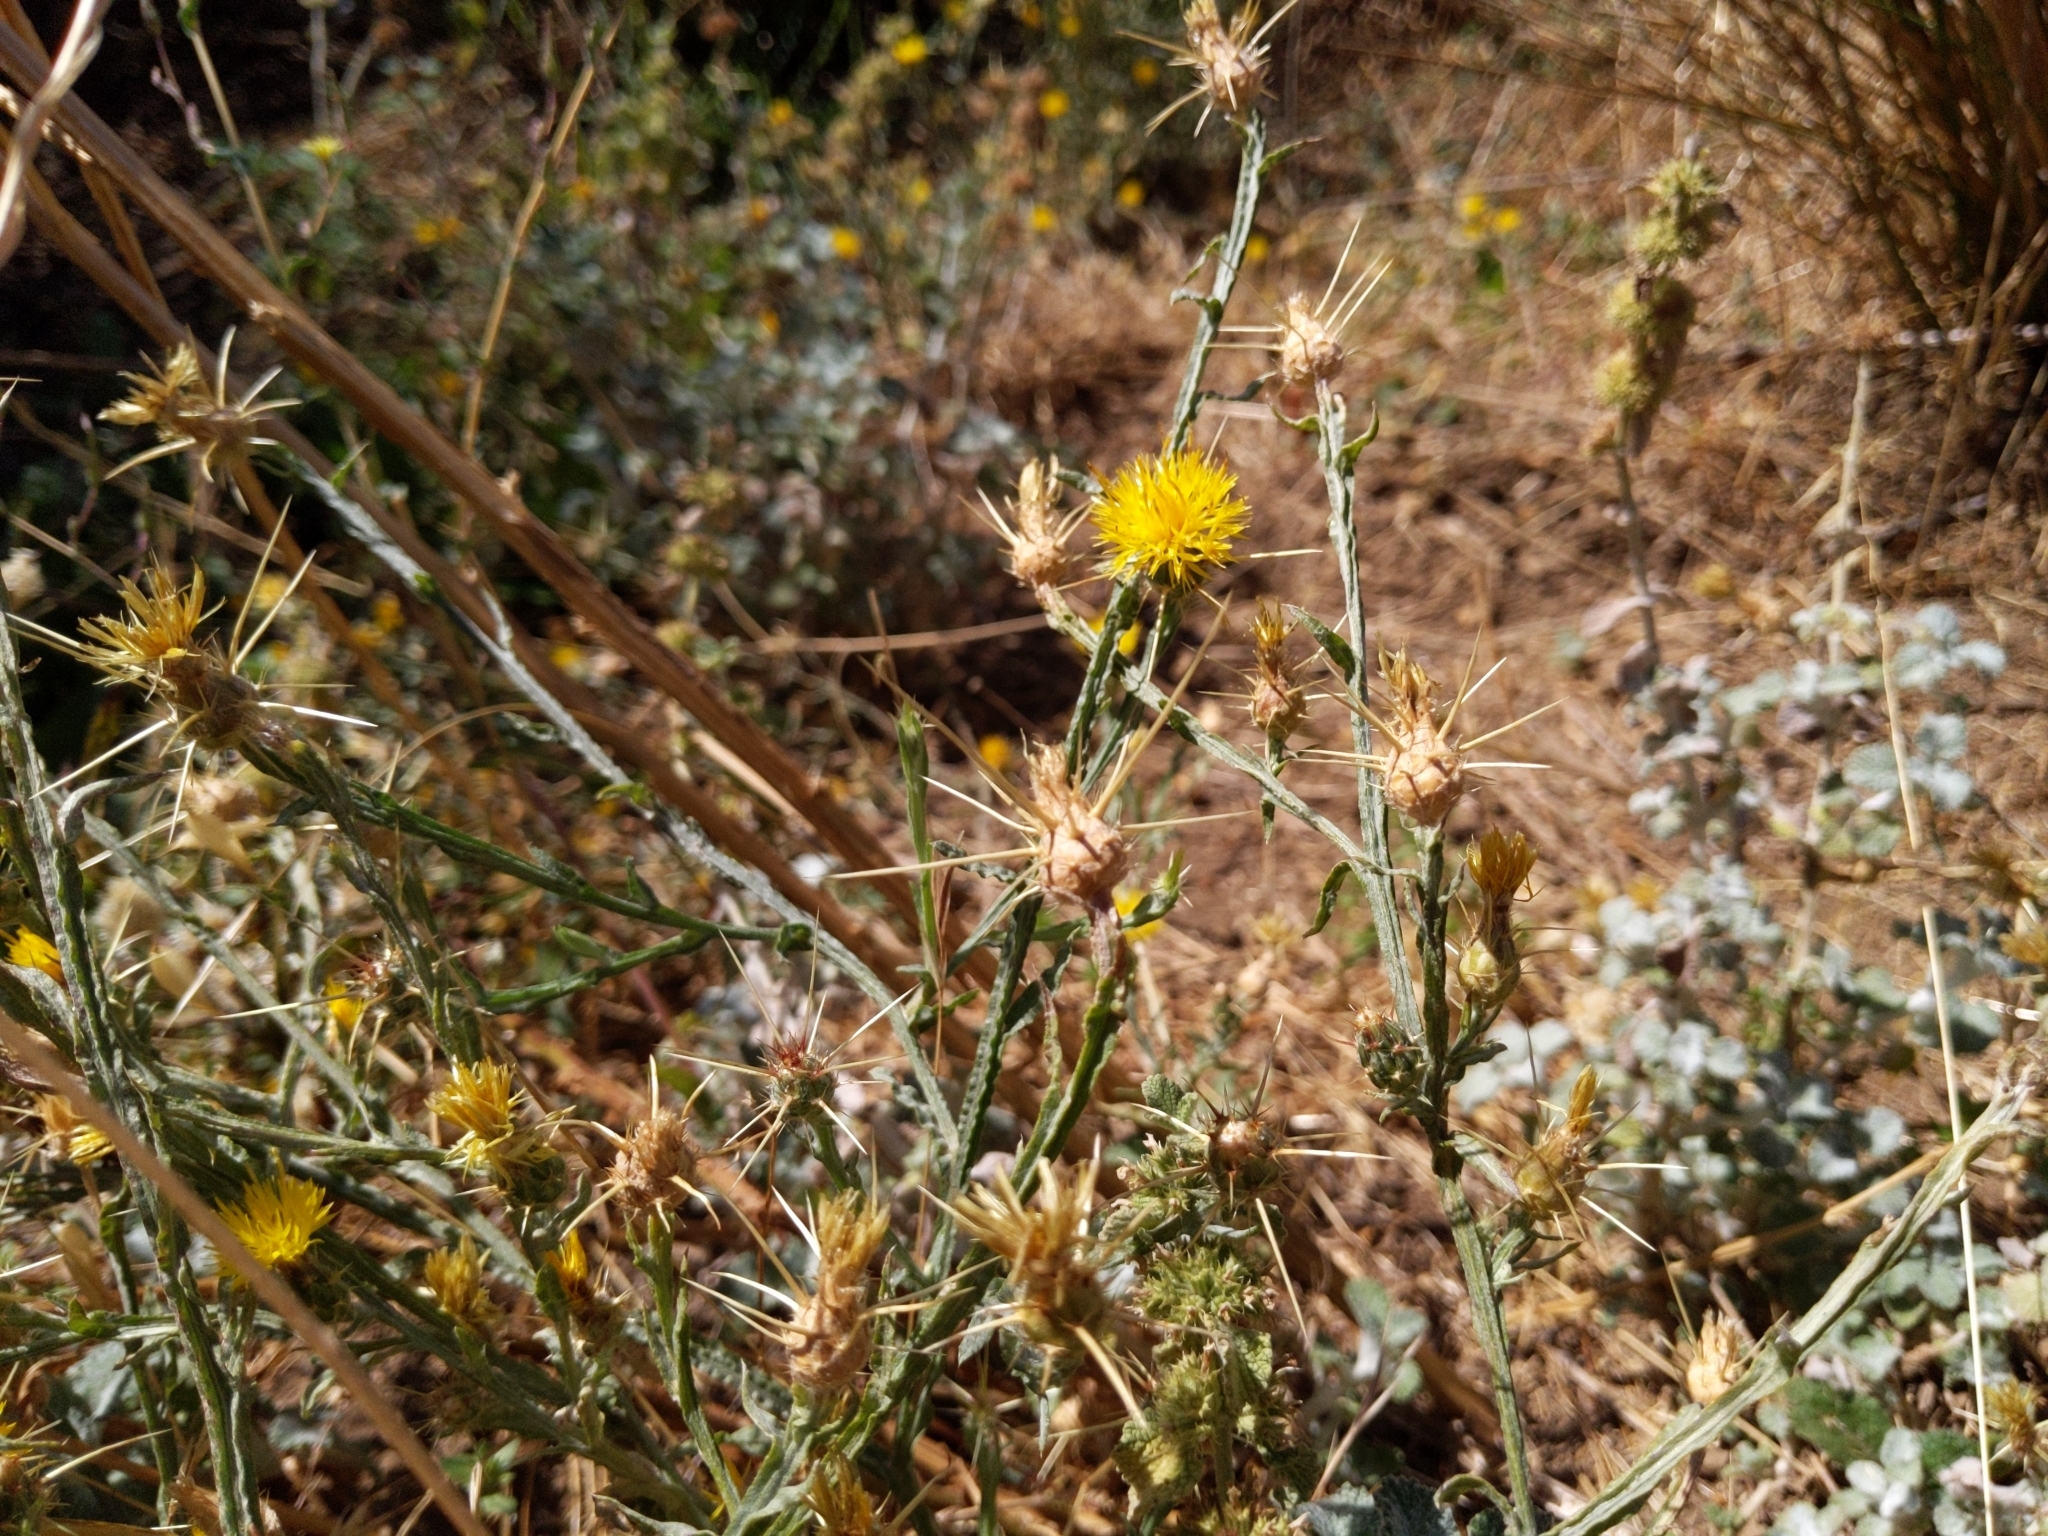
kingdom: Plantae
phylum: Tracheophyta
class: Magnoliopsida
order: Asterales
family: Asteraceae
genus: Centaurea
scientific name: Centaurea solstitialis
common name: Yellow star-thistle
